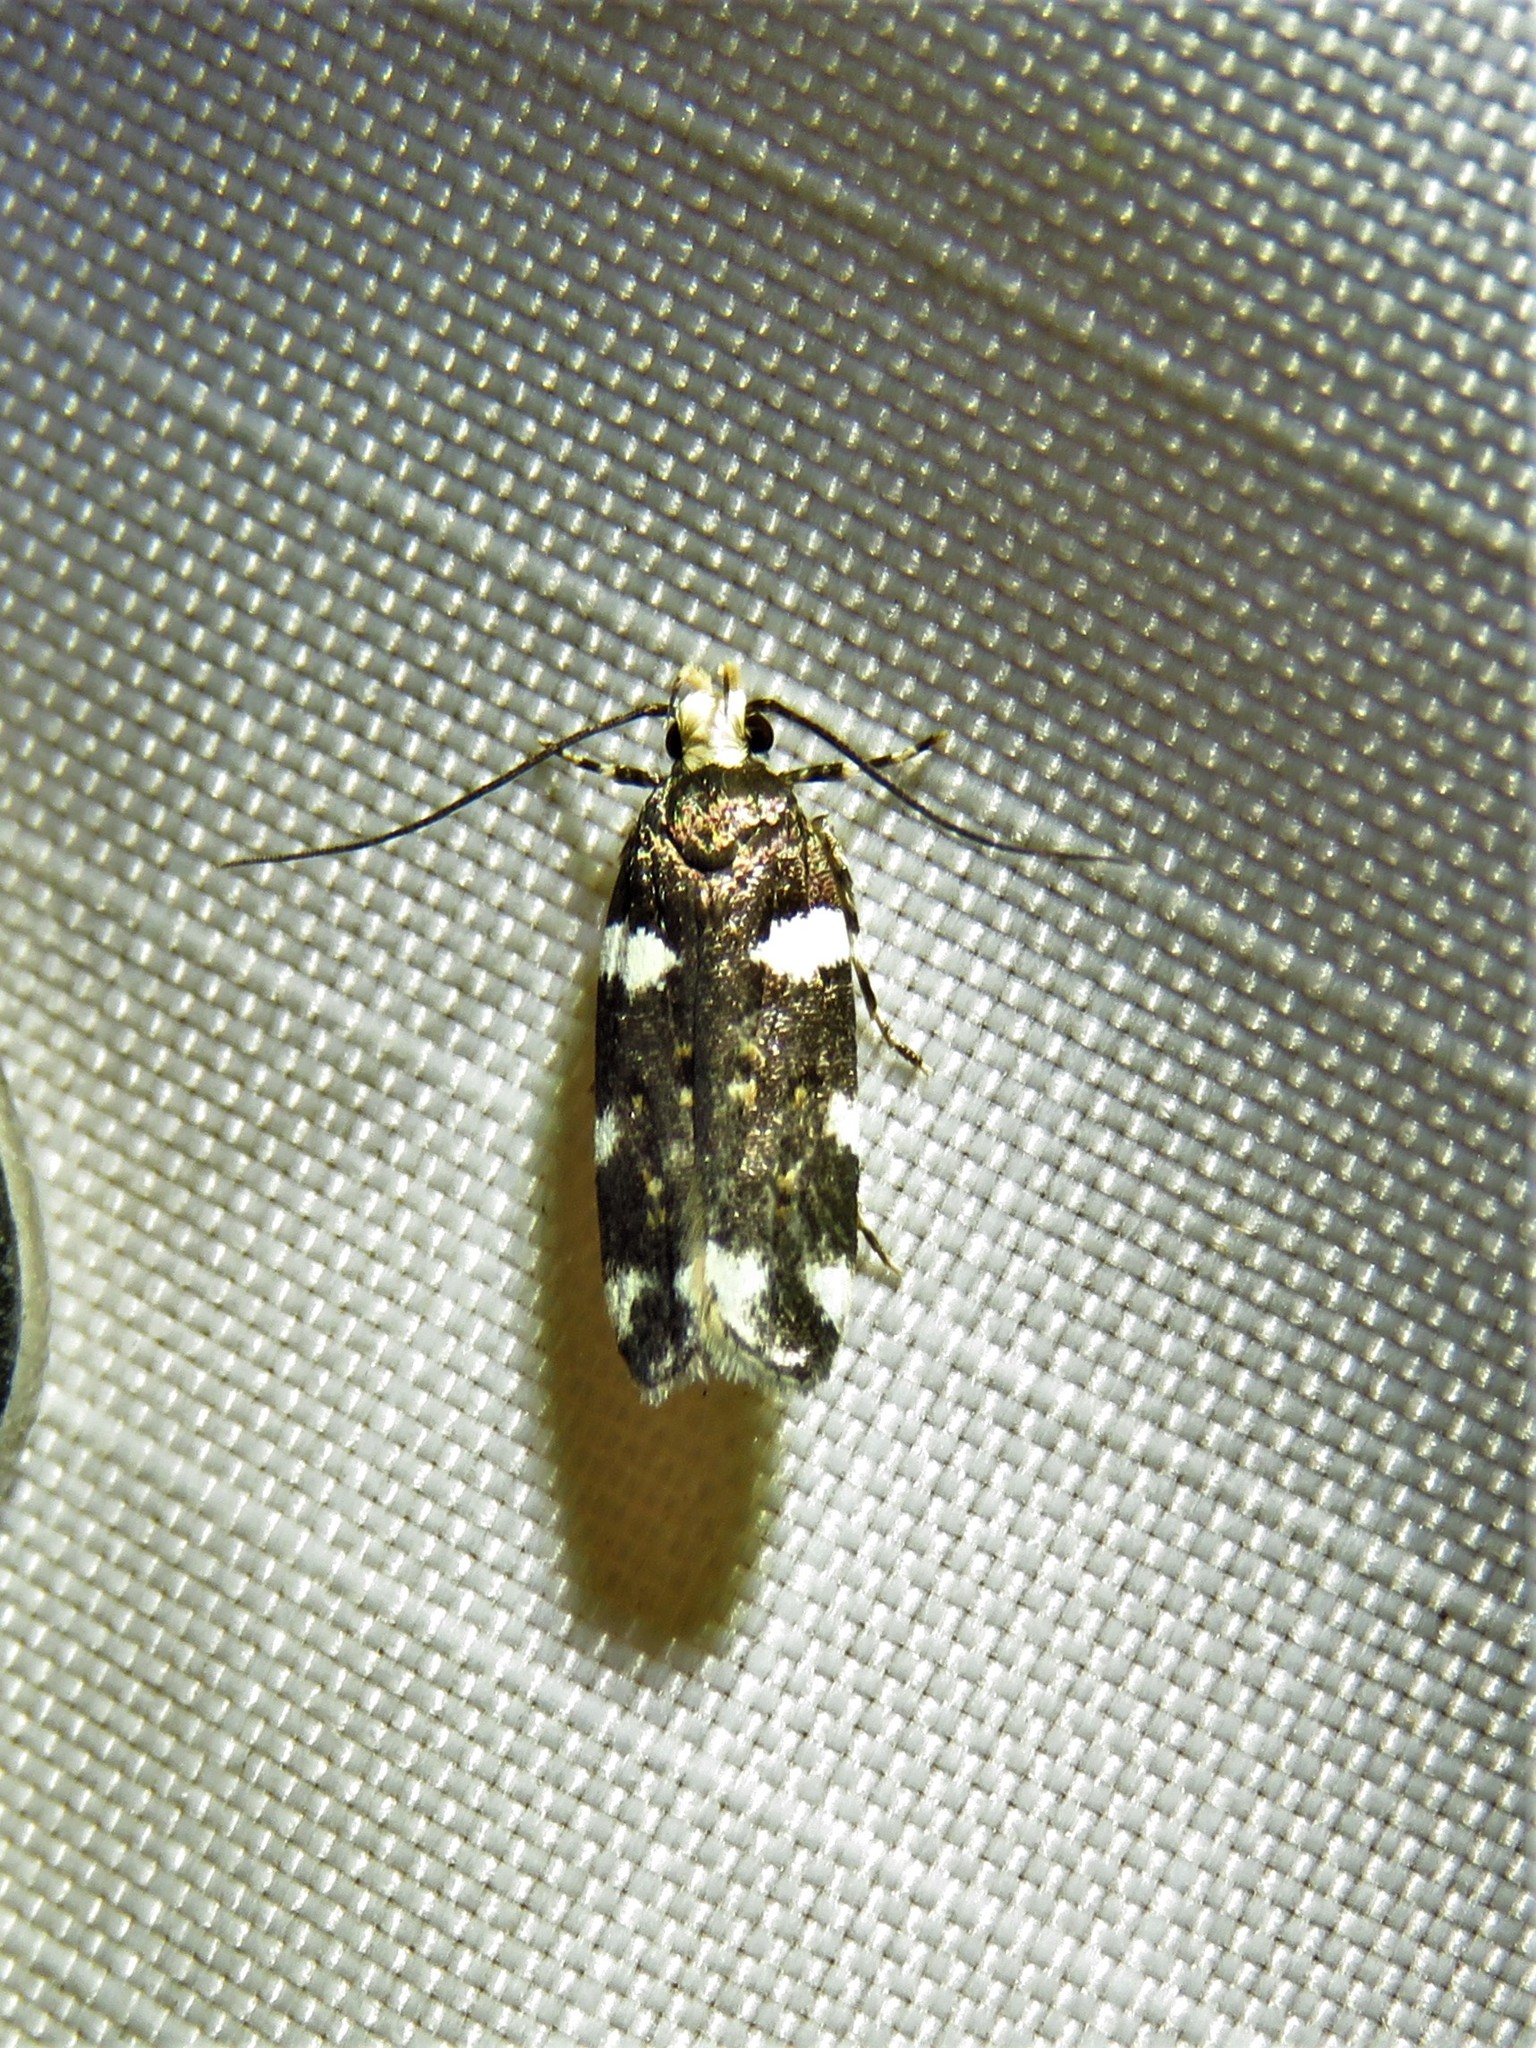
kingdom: Animalia
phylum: Arthropoda
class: Insecta
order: Lepidoptera
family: Gelechiidae
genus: Fascista
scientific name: Fascista cercerisella
